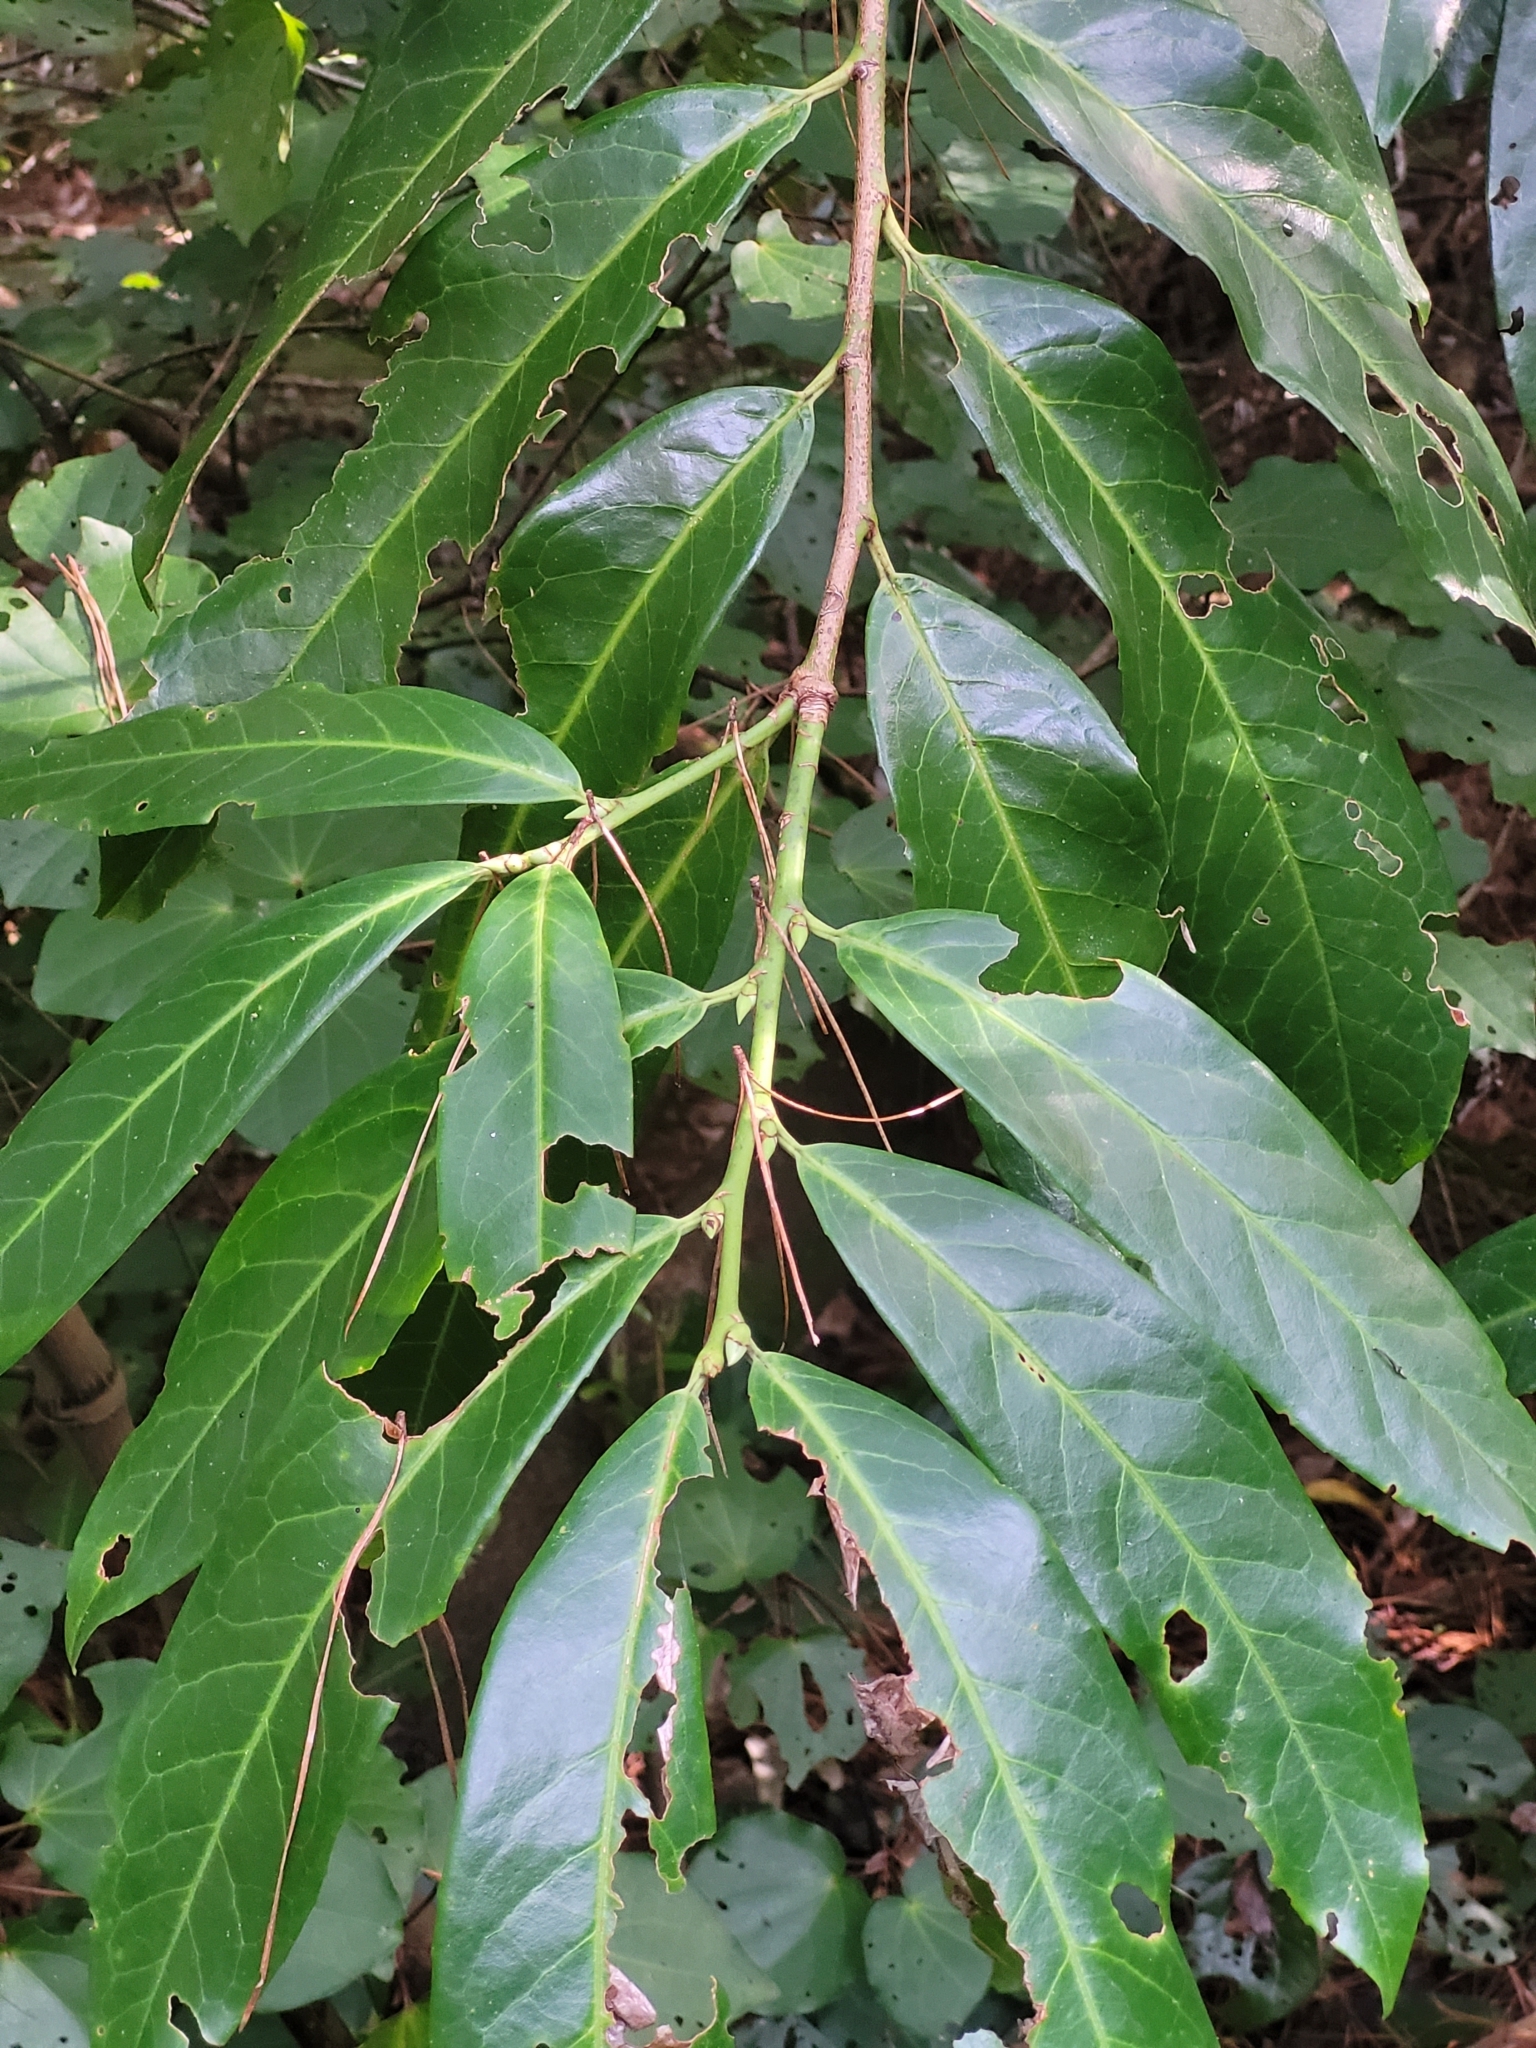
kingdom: Plantae
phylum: Tracheophyta
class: Magnoliopsida
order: Rosales
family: Rosaceae
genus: Prunus
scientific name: Prunus laurocerasus
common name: Cherry laurel
